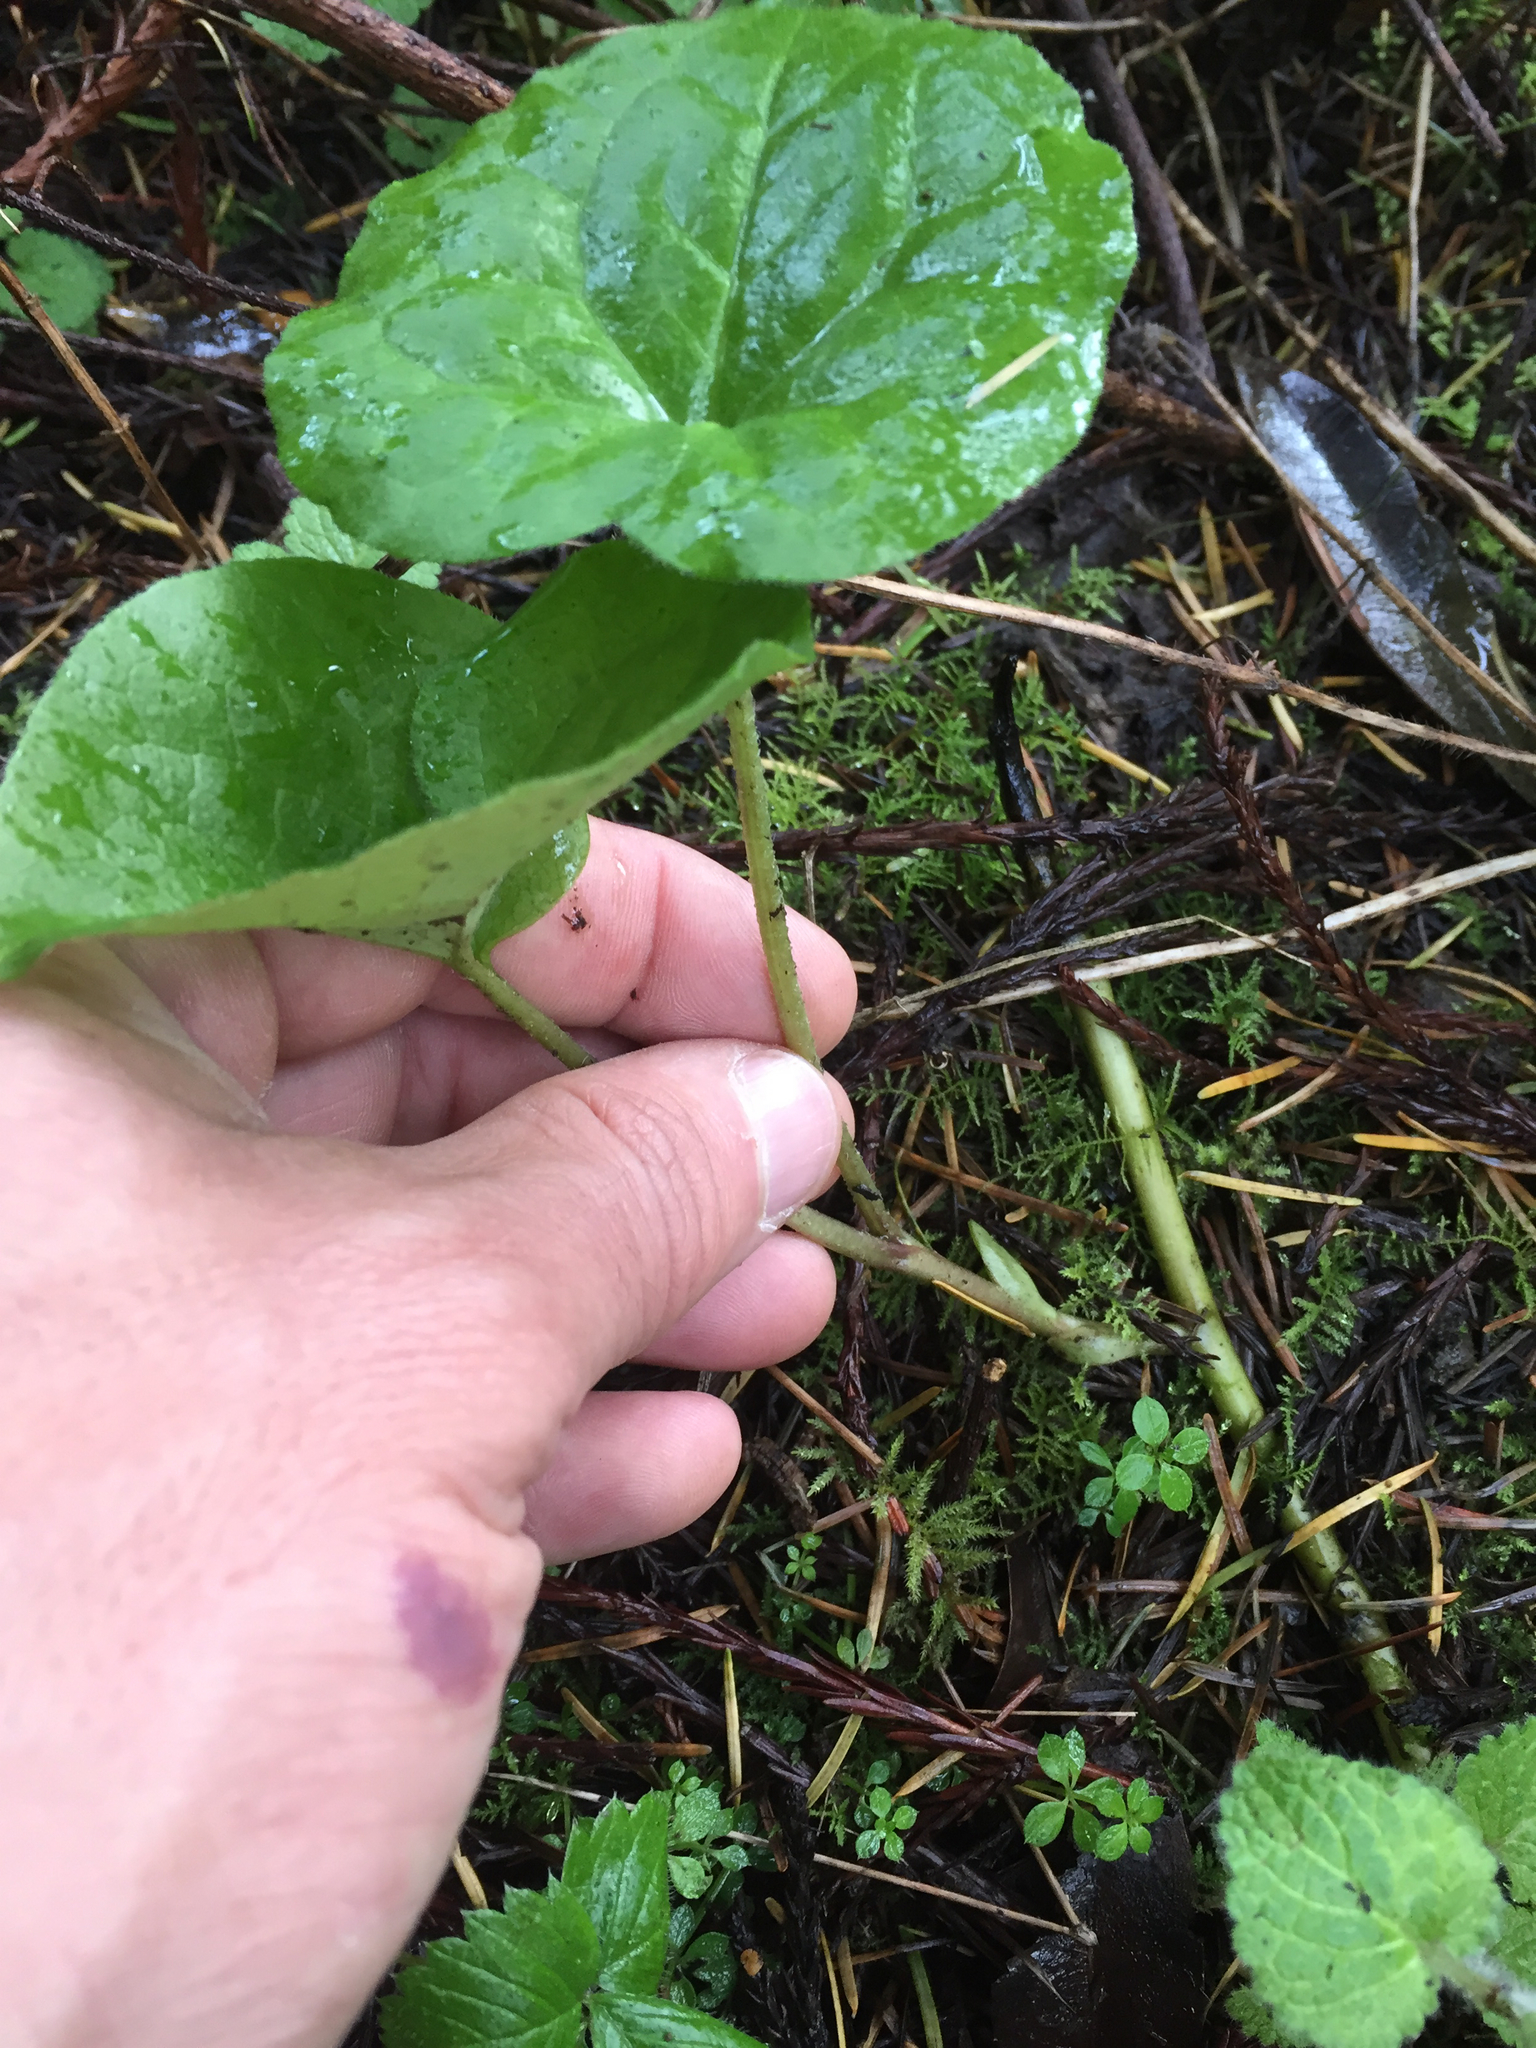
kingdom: Plantae
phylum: Tracheophyta
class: Magnoliopsida
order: Piperales
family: Aristolochiaceae
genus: Asarum
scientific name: Asarum caudatum
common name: Wild ginger
